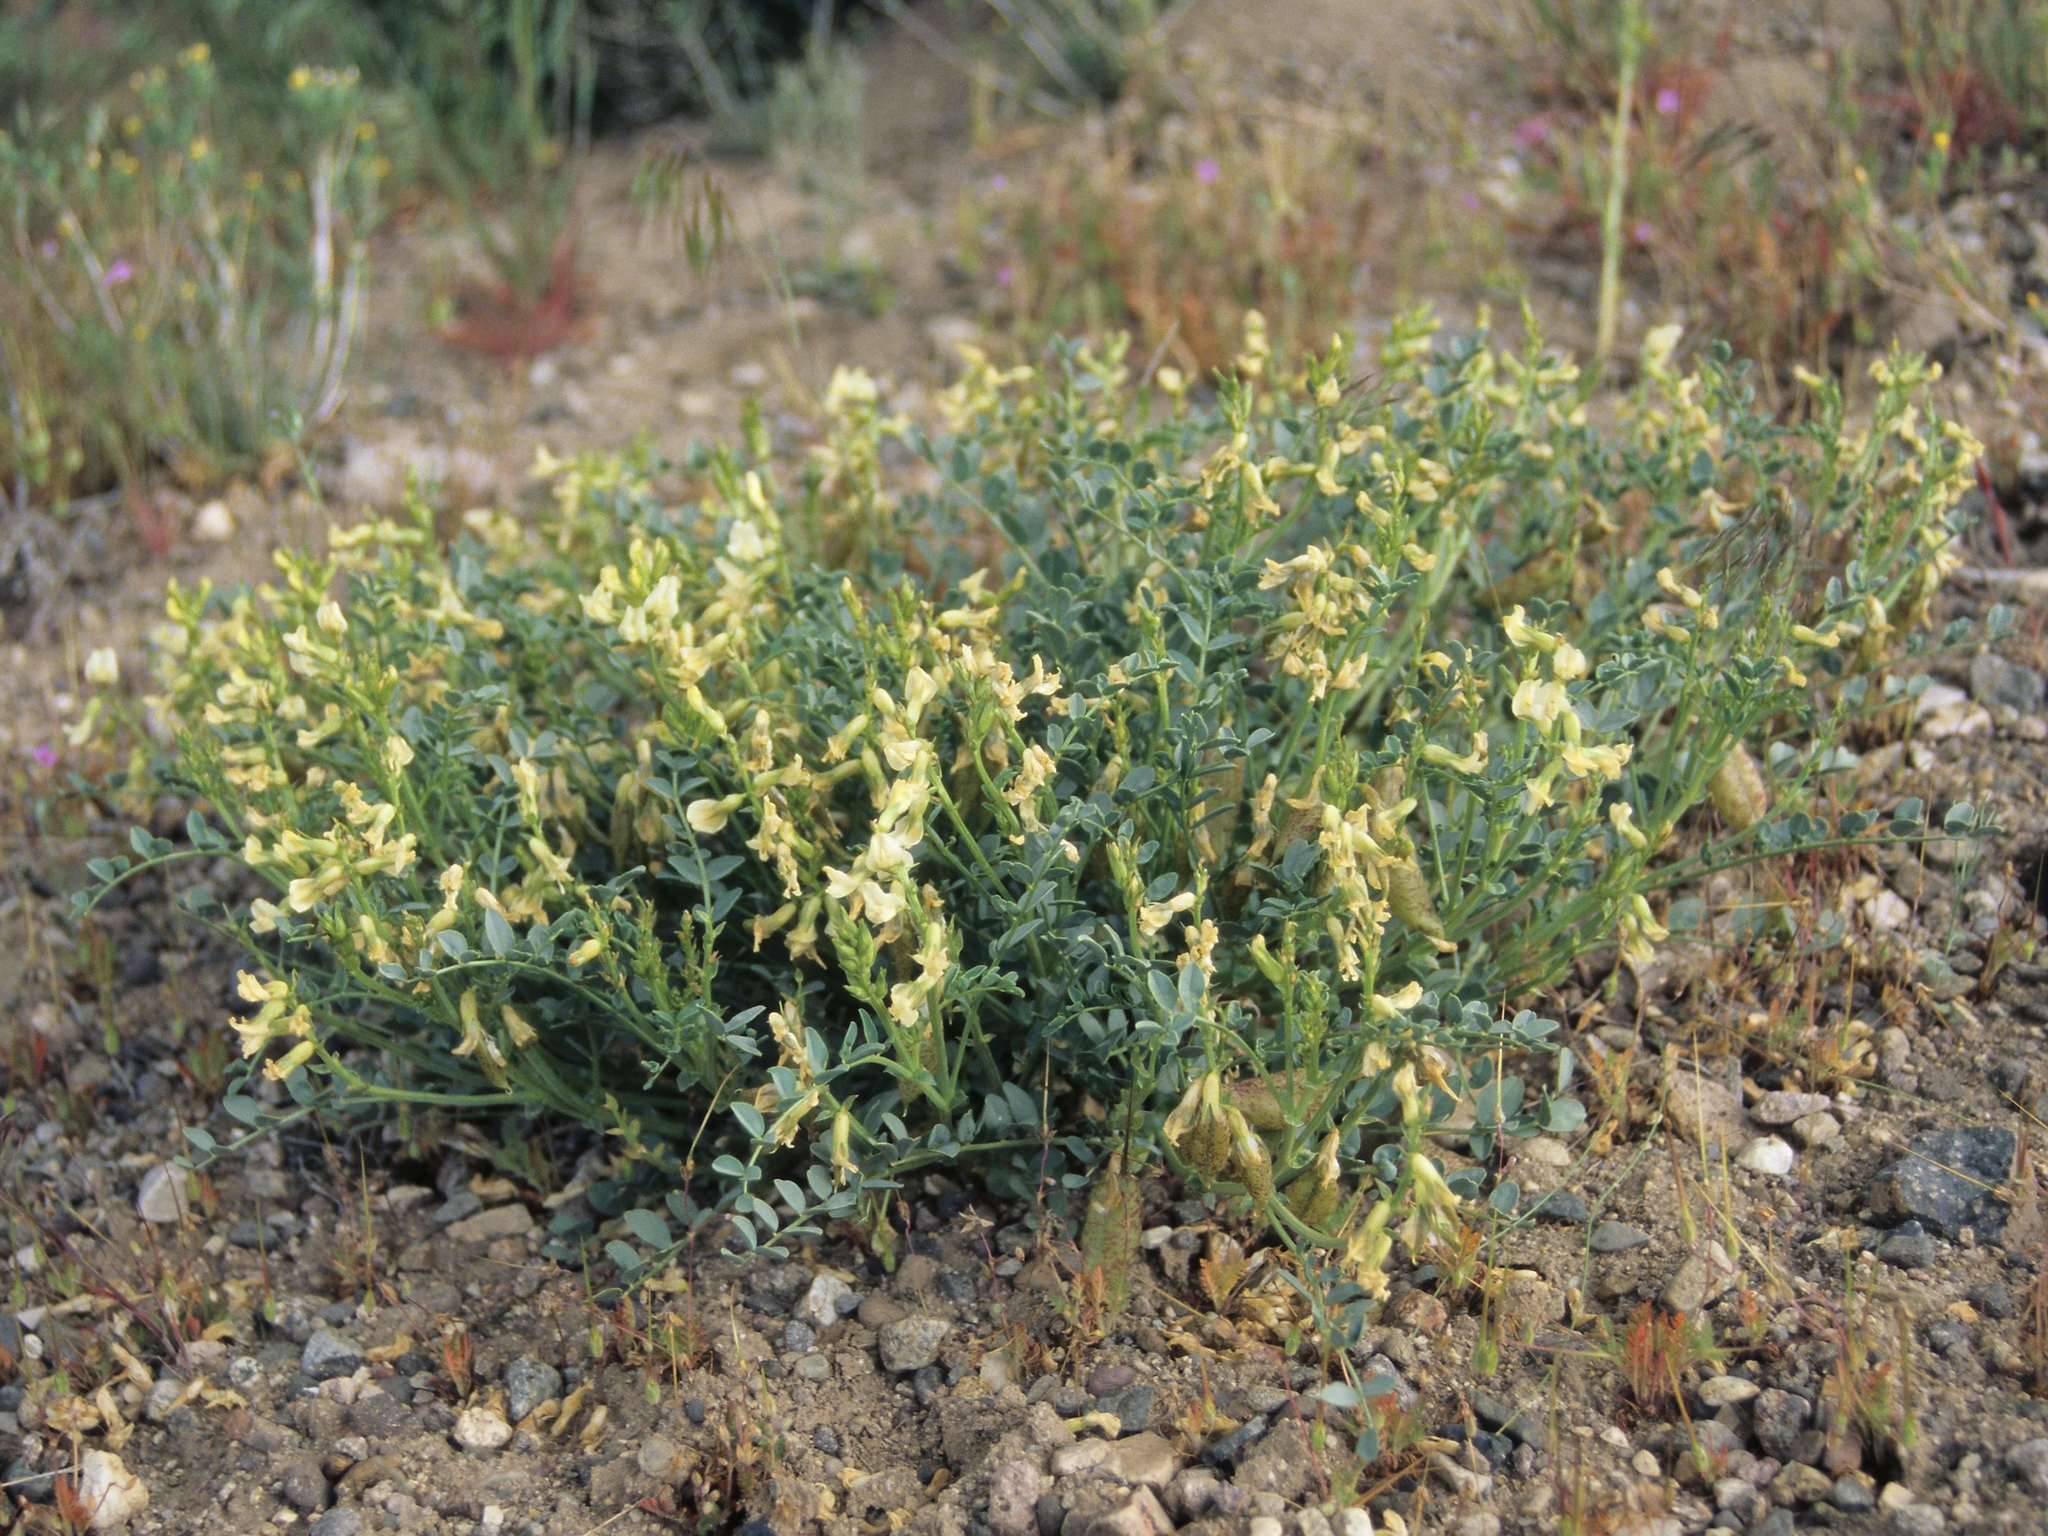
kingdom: Plantae
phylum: Tracheophyta
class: Magnoliopsida
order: Fabales
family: Fabaceae
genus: Astragalus
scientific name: Astragalus oophorus
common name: Egg milkvetch
